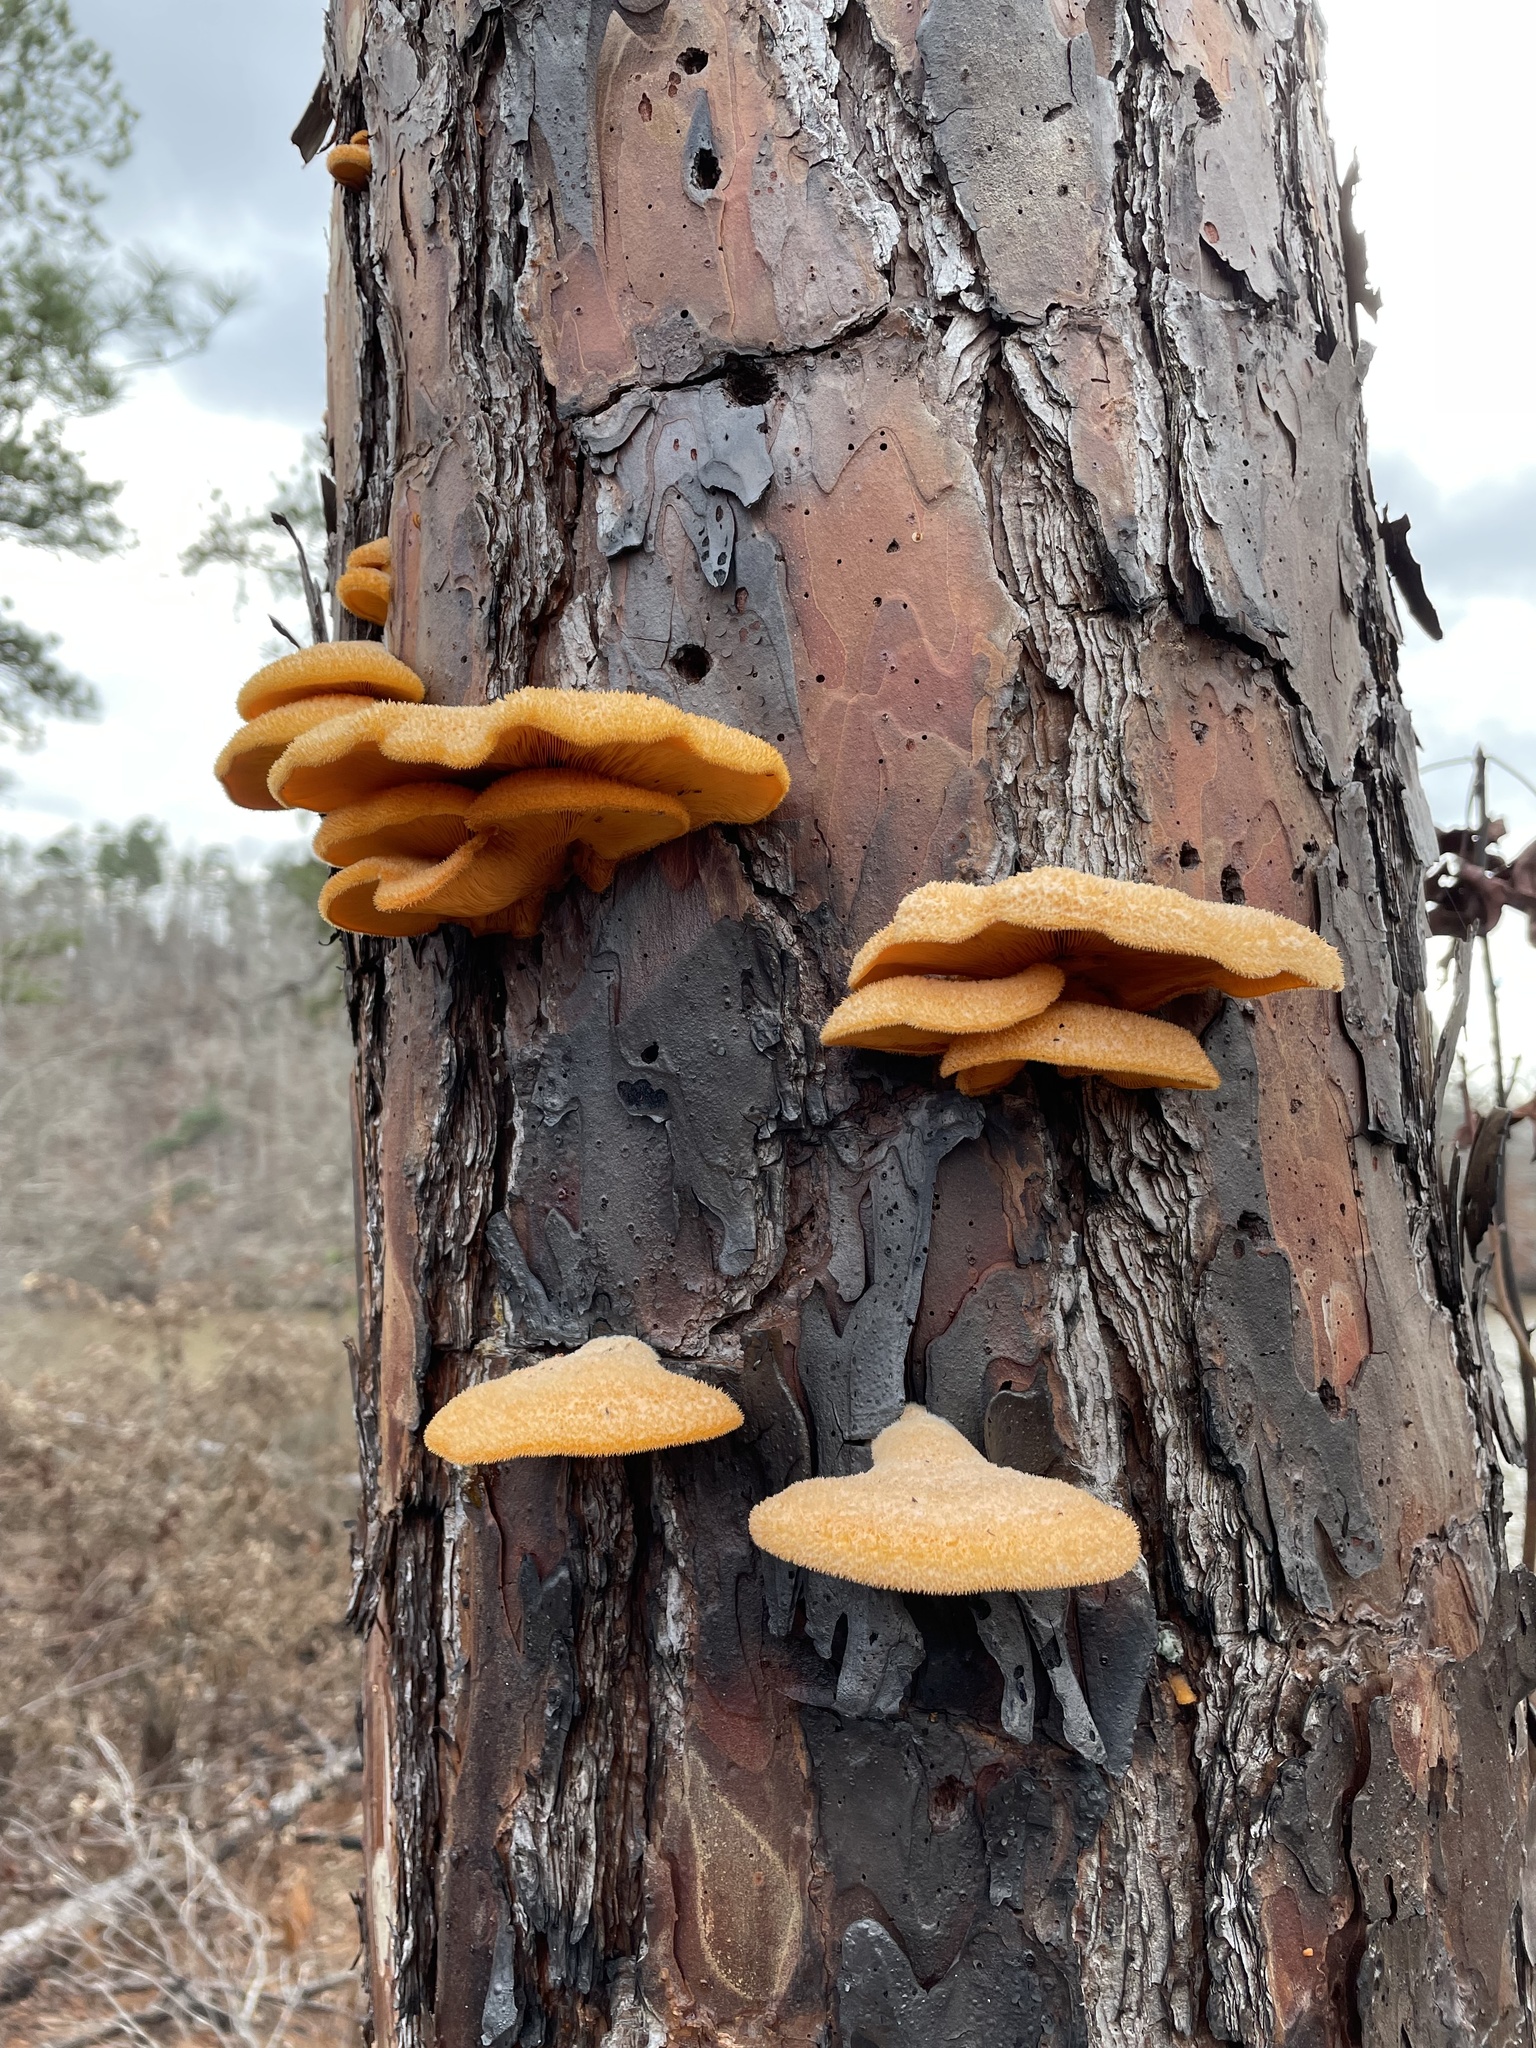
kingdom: Fungi
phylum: Basidiomycota
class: Agaricomycetes
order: Agaricales
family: Phyllotopsidaceae
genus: Phyllotopsis
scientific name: Phyllotopsis nidulans
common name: Orange mock oyster
